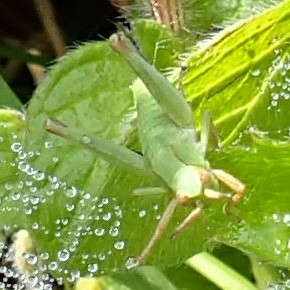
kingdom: Animalia
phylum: Arthropoda
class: Insecta
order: Orthoptera
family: Acrididae
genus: Dichromorpha
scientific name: Dichromorpha viridis
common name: Short-winged green grasshopper
